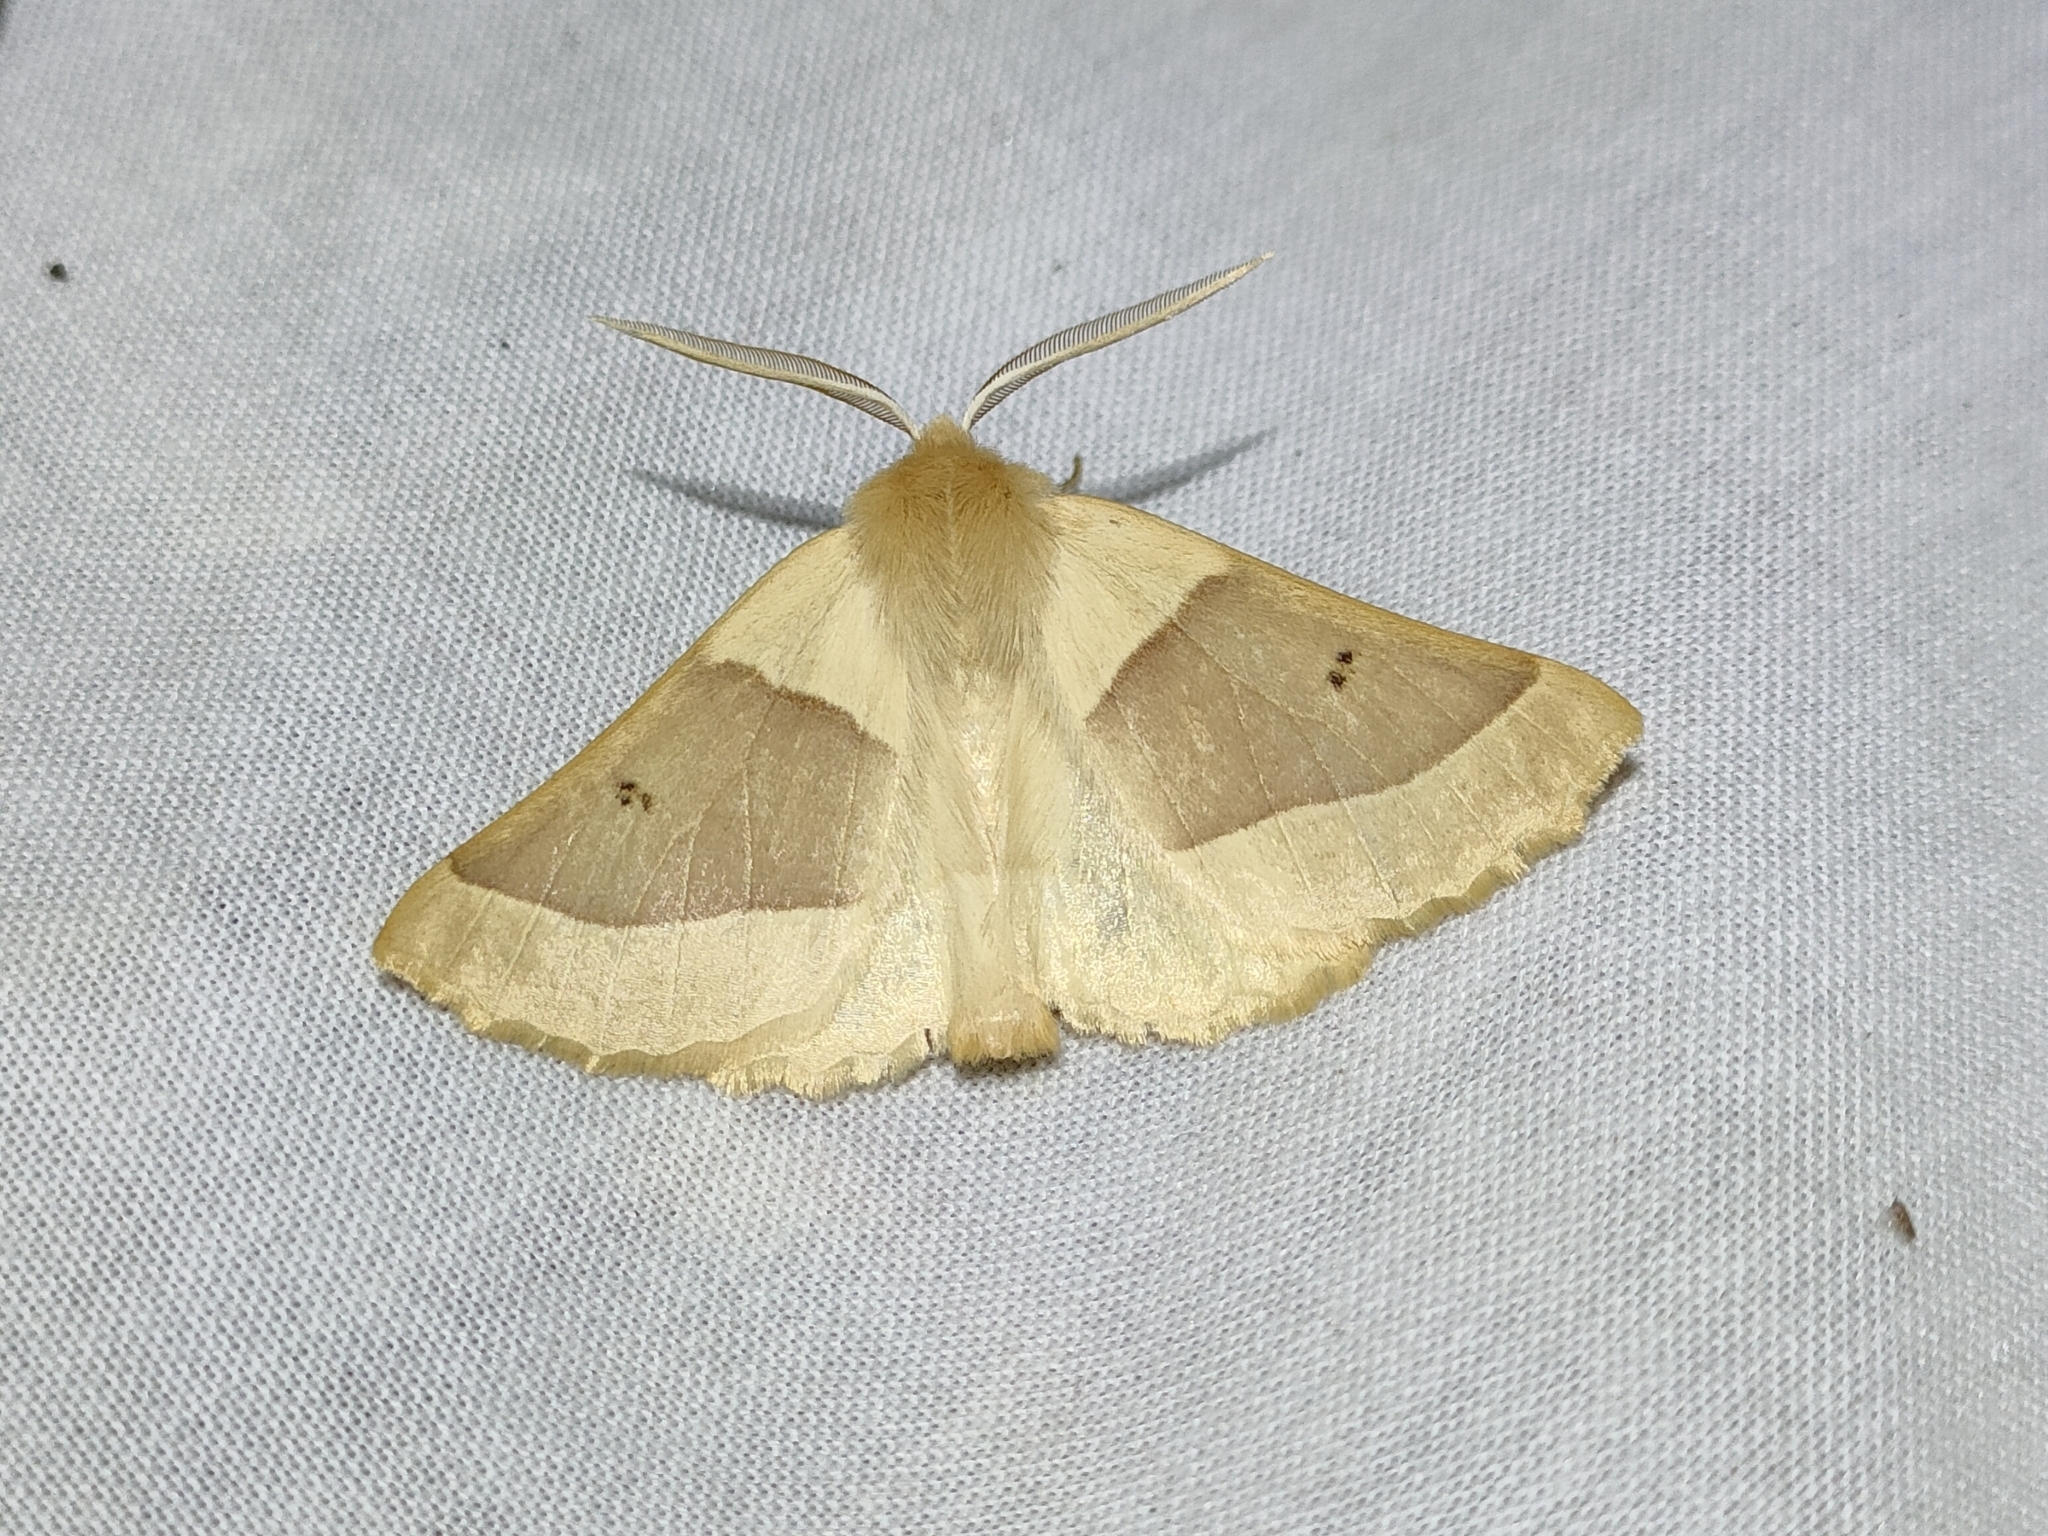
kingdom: Animalia
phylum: Arthropoda
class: Insecta
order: Lepidoptera
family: Geometridae
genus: Crocallis
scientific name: Crocallis elinguaria
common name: Scalloped oak
